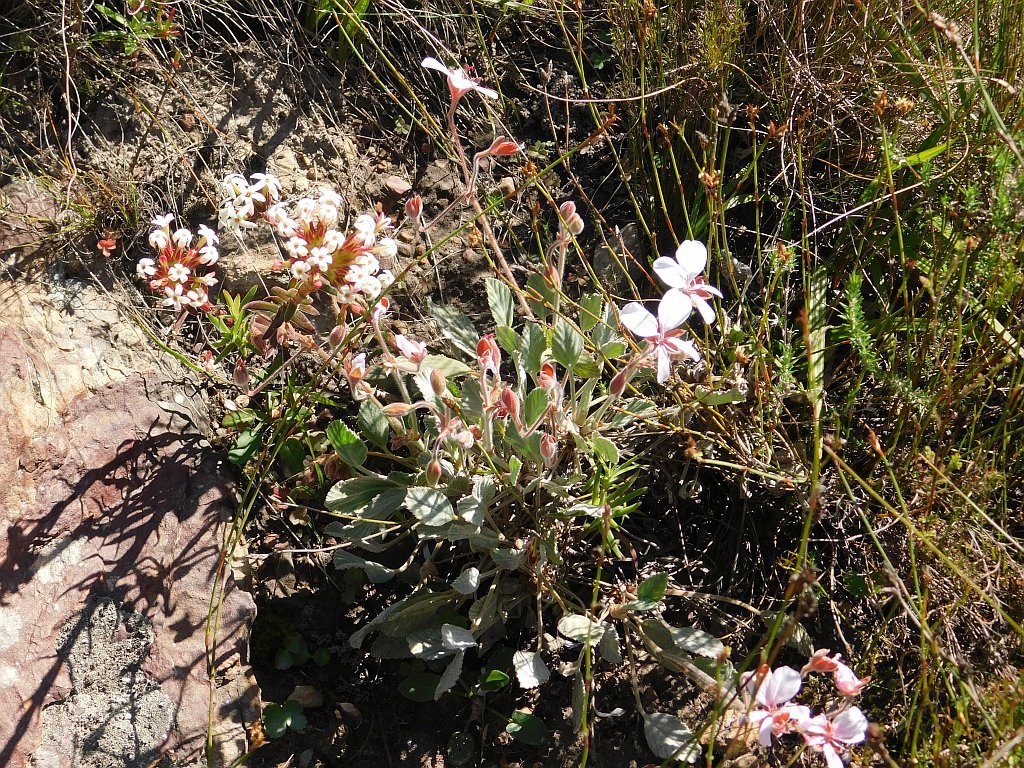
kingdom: Plantae
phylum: Tracheophyta
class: Magnoliopsida
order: Geraniales
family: Geraniaceae
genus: Pelargonium
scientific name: Pelargonium ovale
